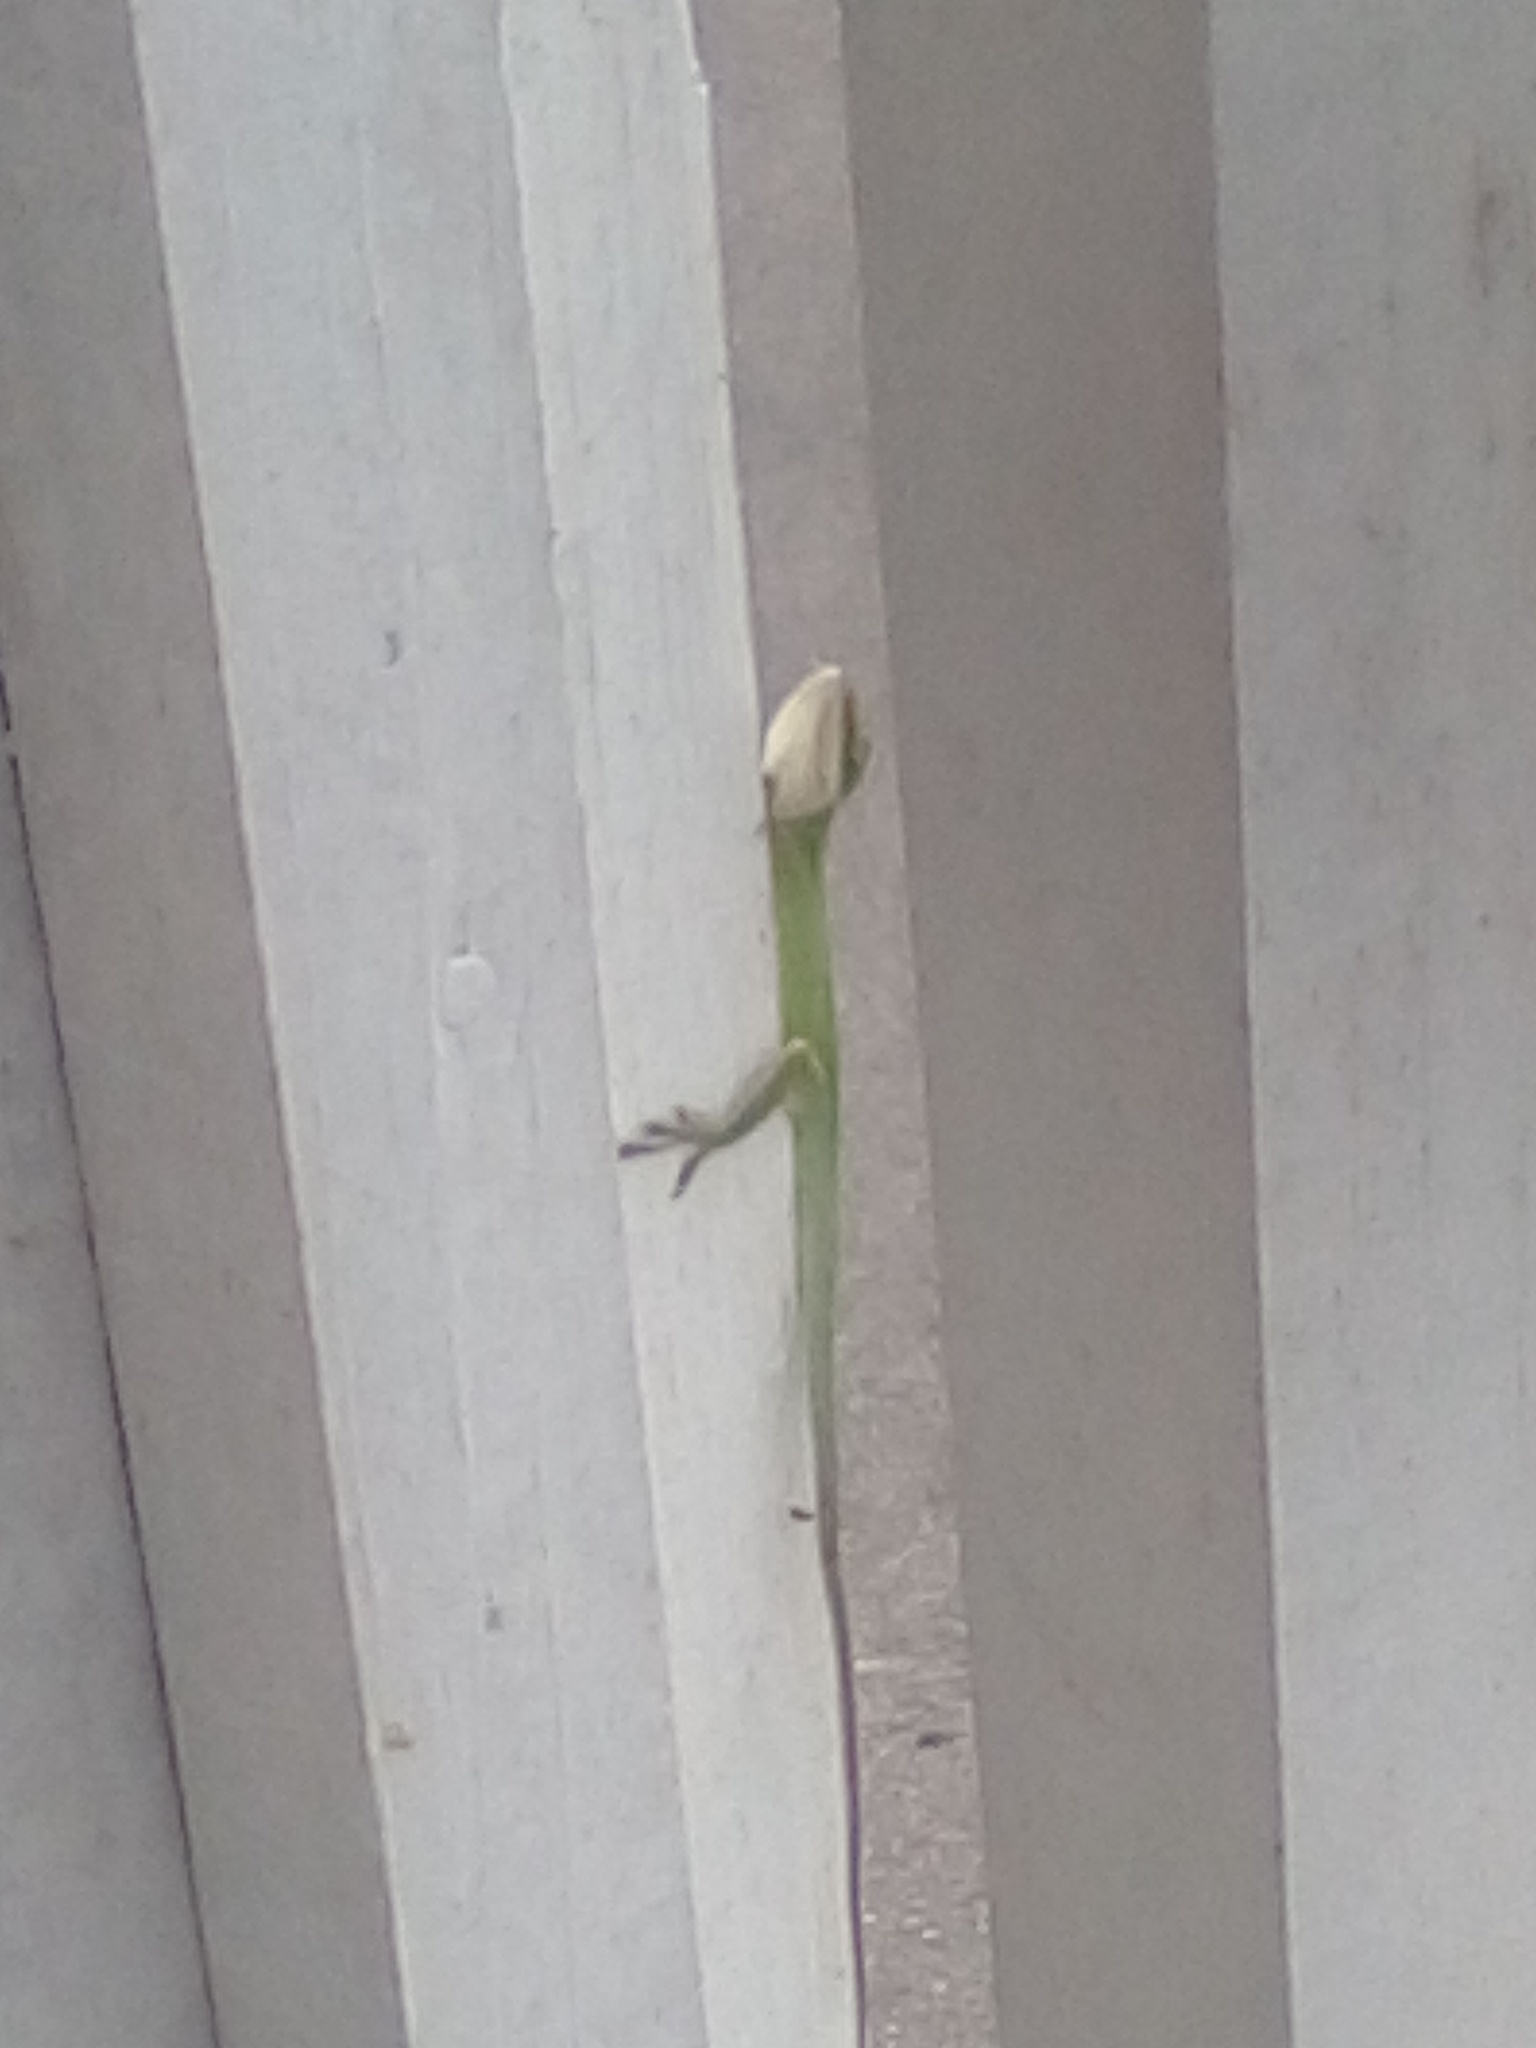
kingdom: Animalia
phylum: Chordata
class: Squamata
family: Dactyloidae
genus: Anolis
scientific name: Anolis carolinensis
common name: Green anole
